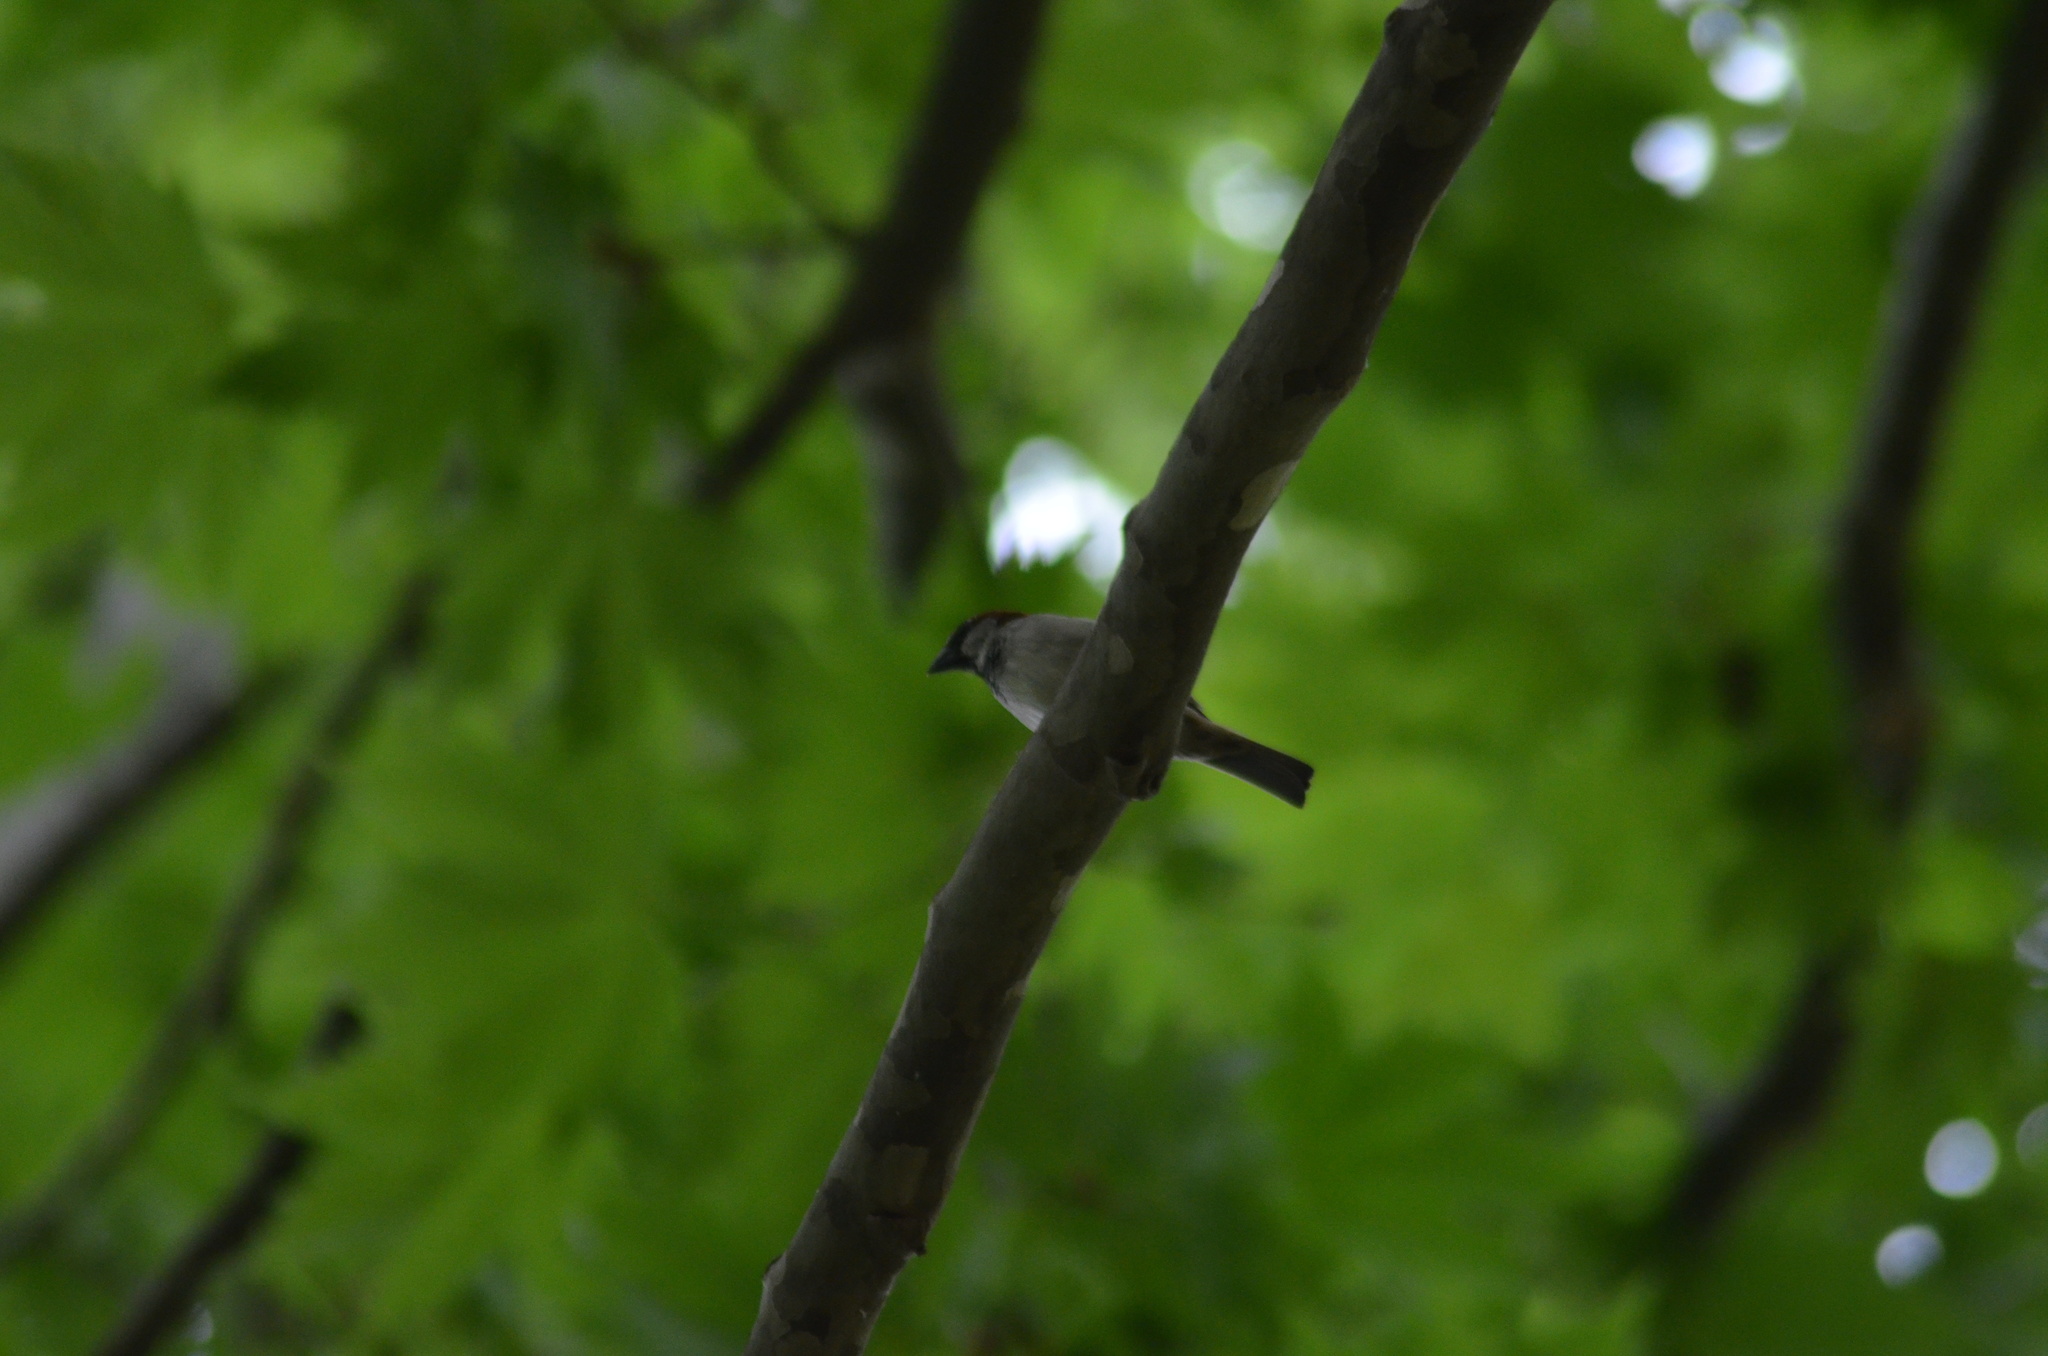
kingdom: Animalia
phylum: Chordata
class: Aves
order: Passeriformes
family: Passeridae
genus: Passer
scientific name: Passer domesticus
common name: House sparrow
